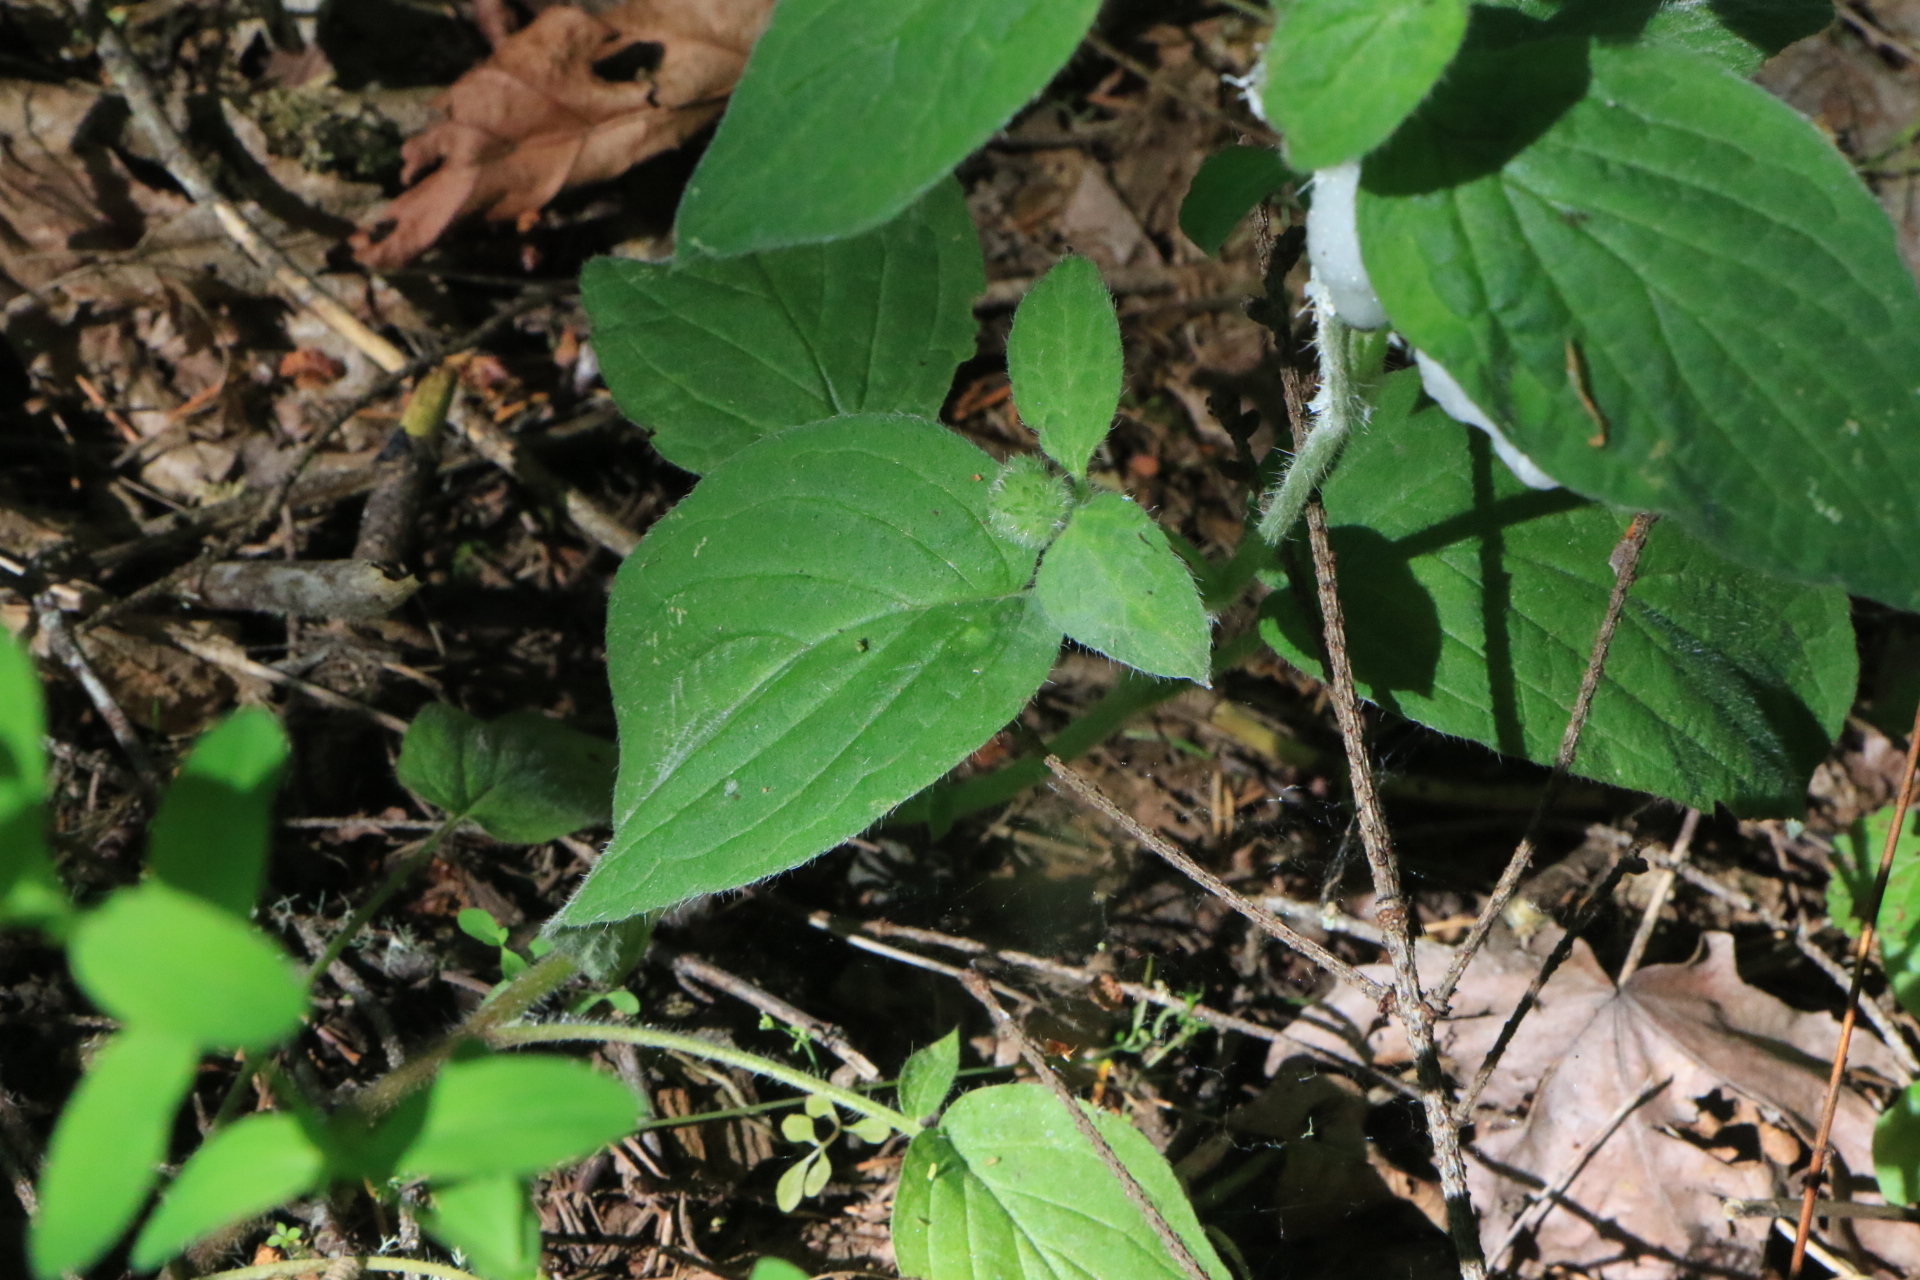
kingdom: Plantae
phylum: Tracheophyta
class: Magnoliopsida
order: Boraginales
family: Hydrophyllaceae
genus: Phacelia
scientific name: Phacelia nemoralis
